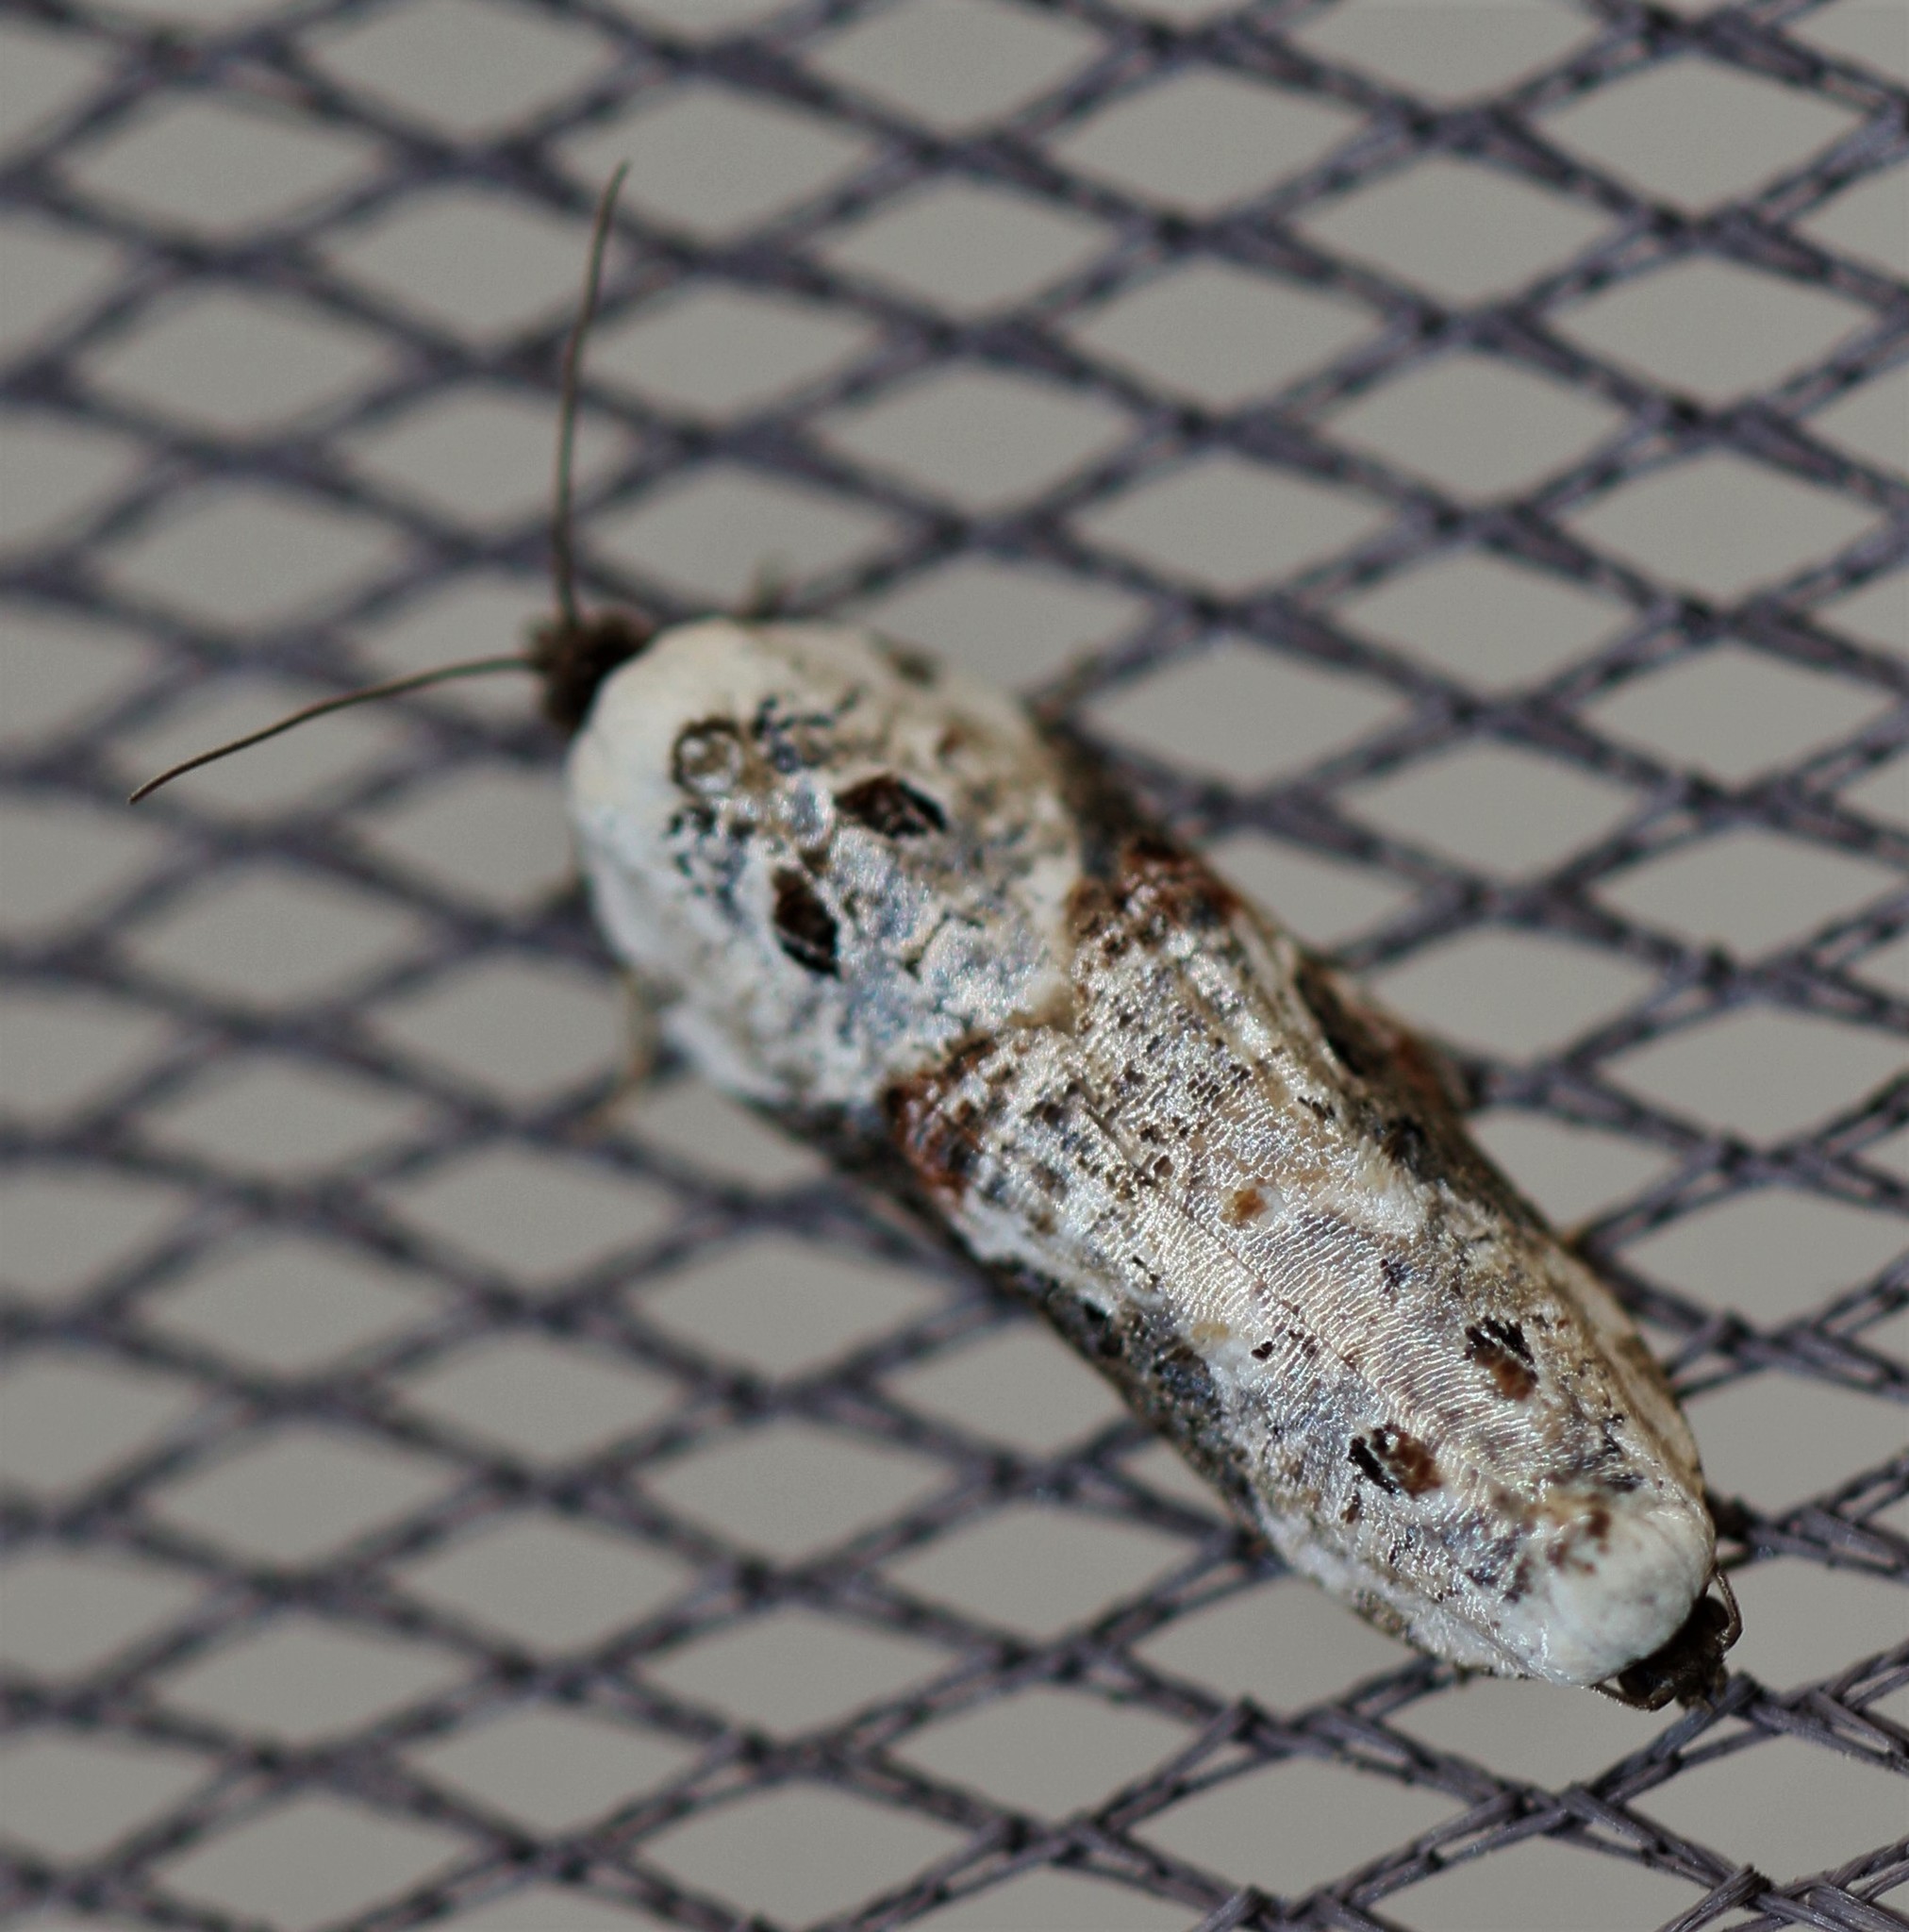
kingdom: Animalia
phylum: Arthropoda
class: Insecta
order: Lepidoptera
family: Tortricidae
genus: Acleris
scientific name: Acleris nivisellana
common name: Snowy-shouldered acleris moth
